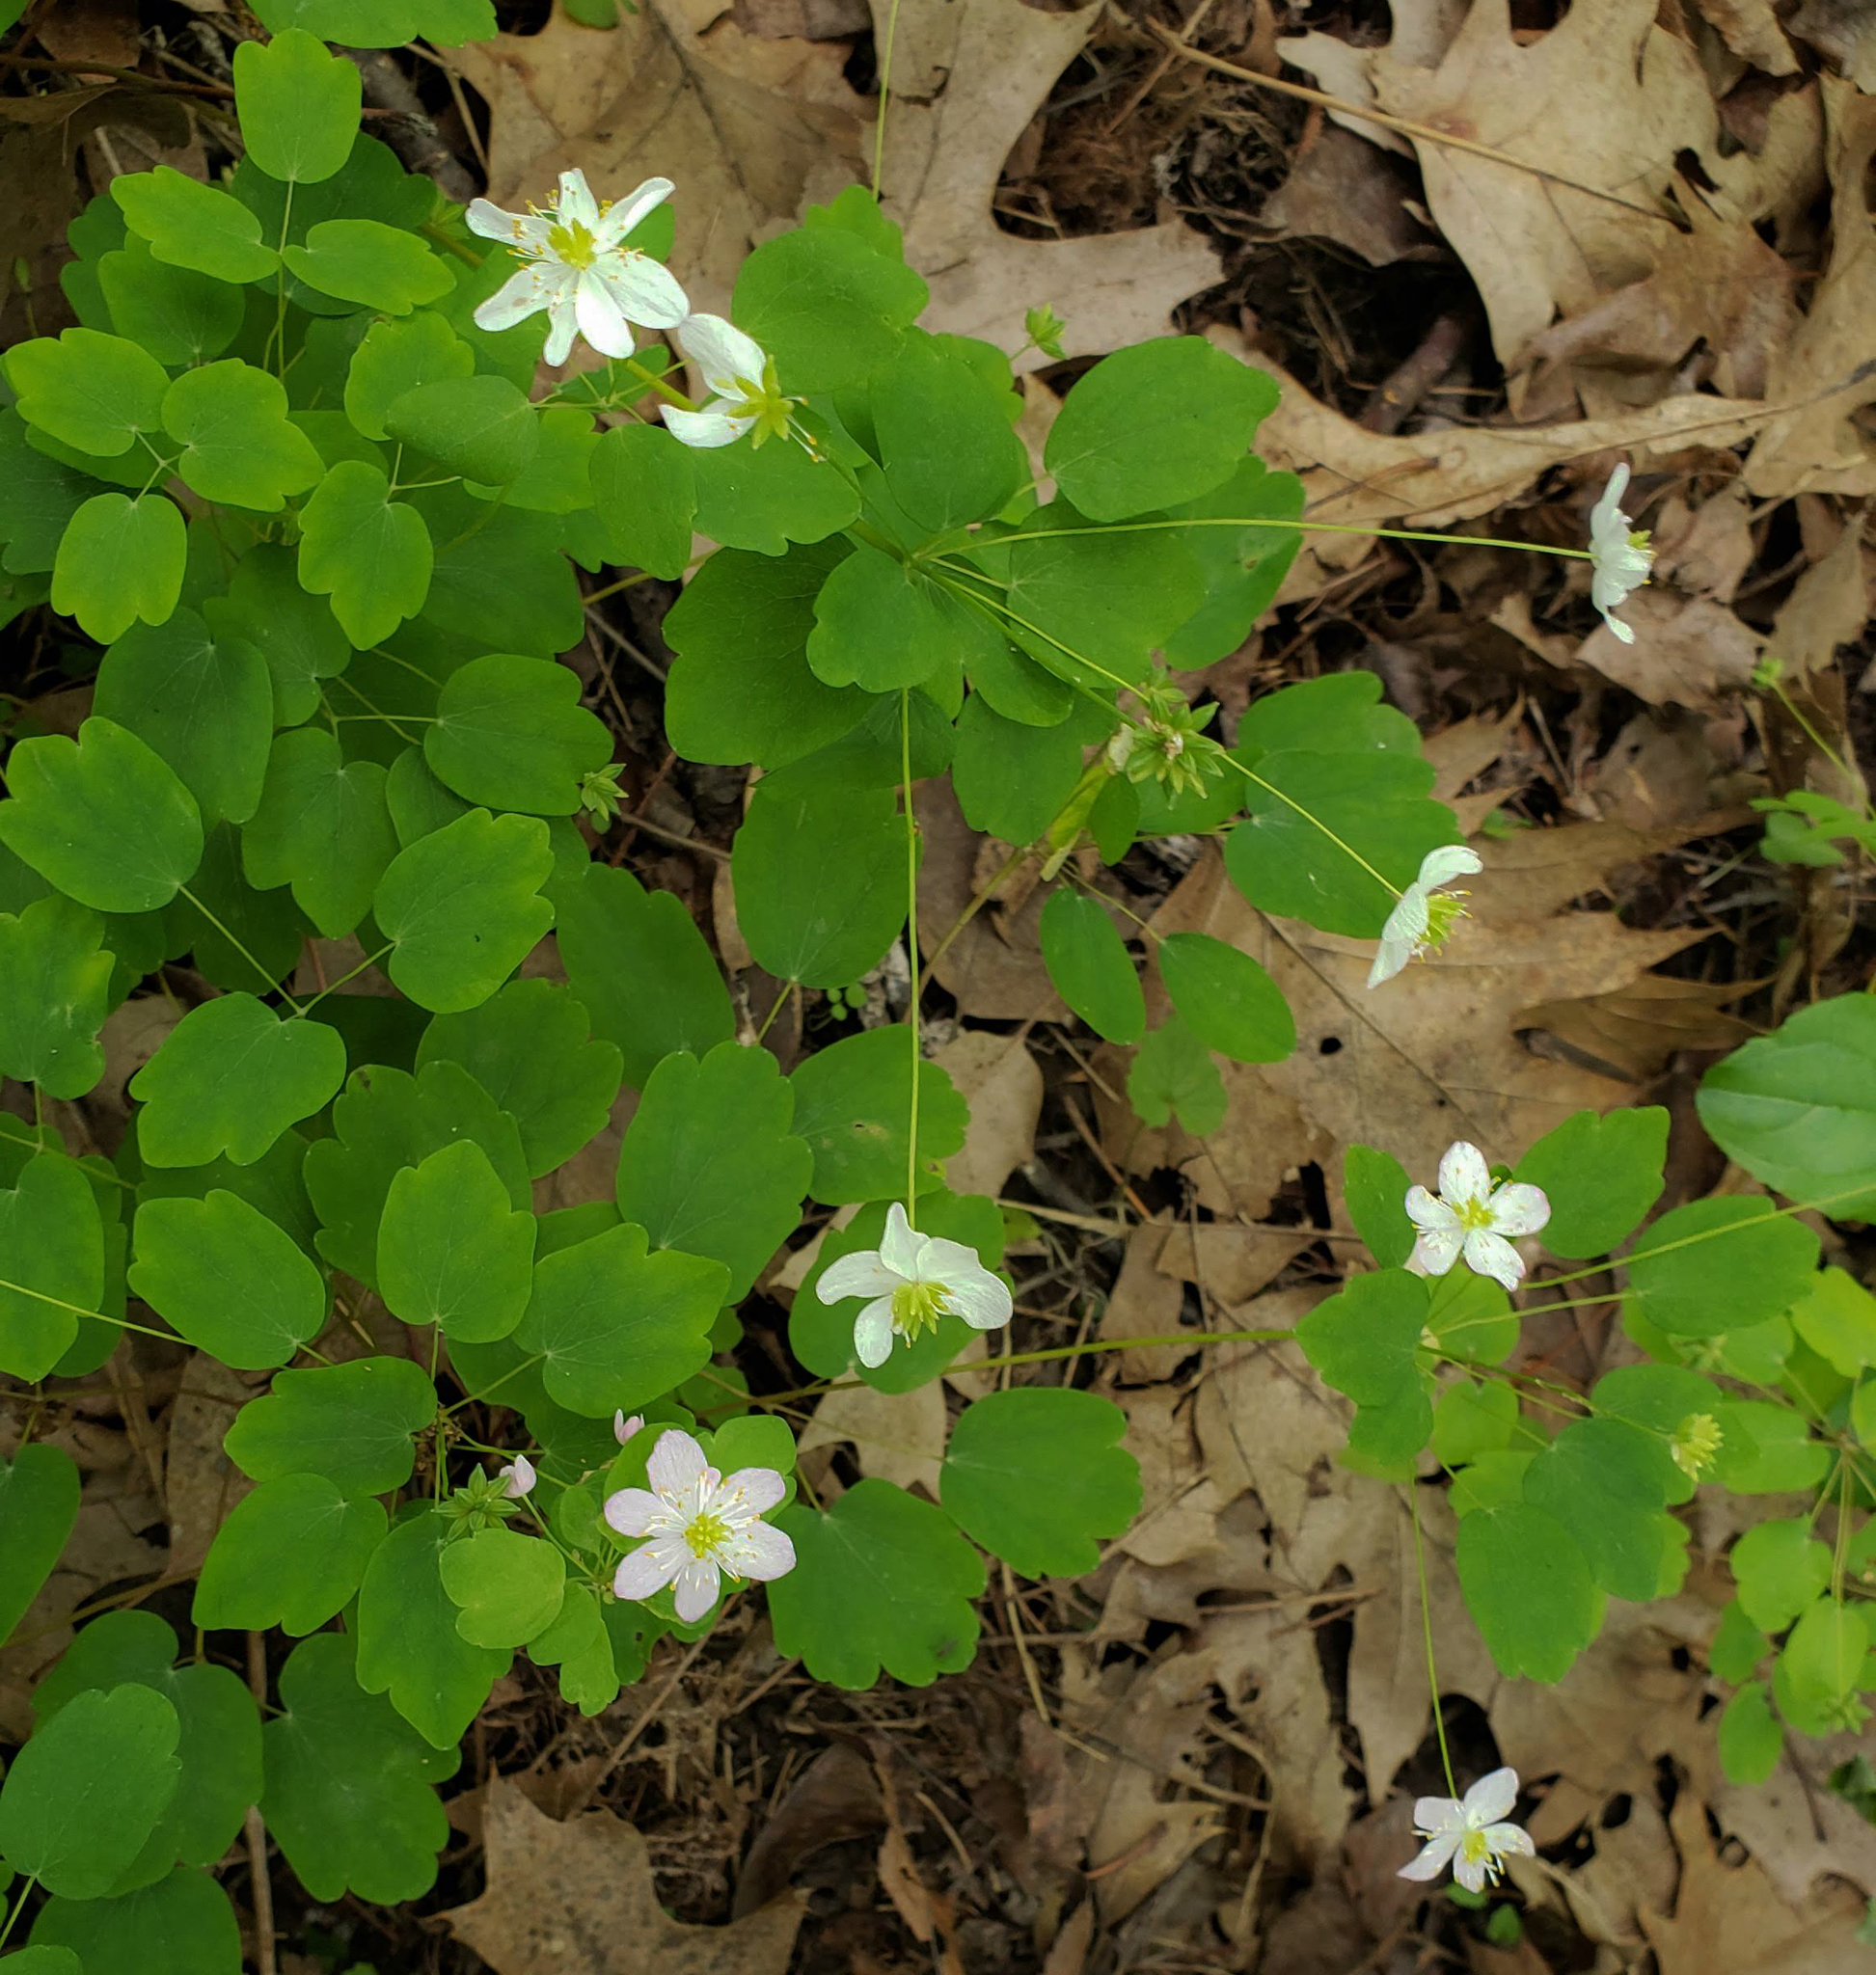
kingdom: Plantae
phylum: Tracheophyta
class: Magnoliopsida
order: Ranunculales
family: Ranunculaceae
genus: Thalictrum
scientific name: Thalictrum thalictroides
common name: Rue-anemone
